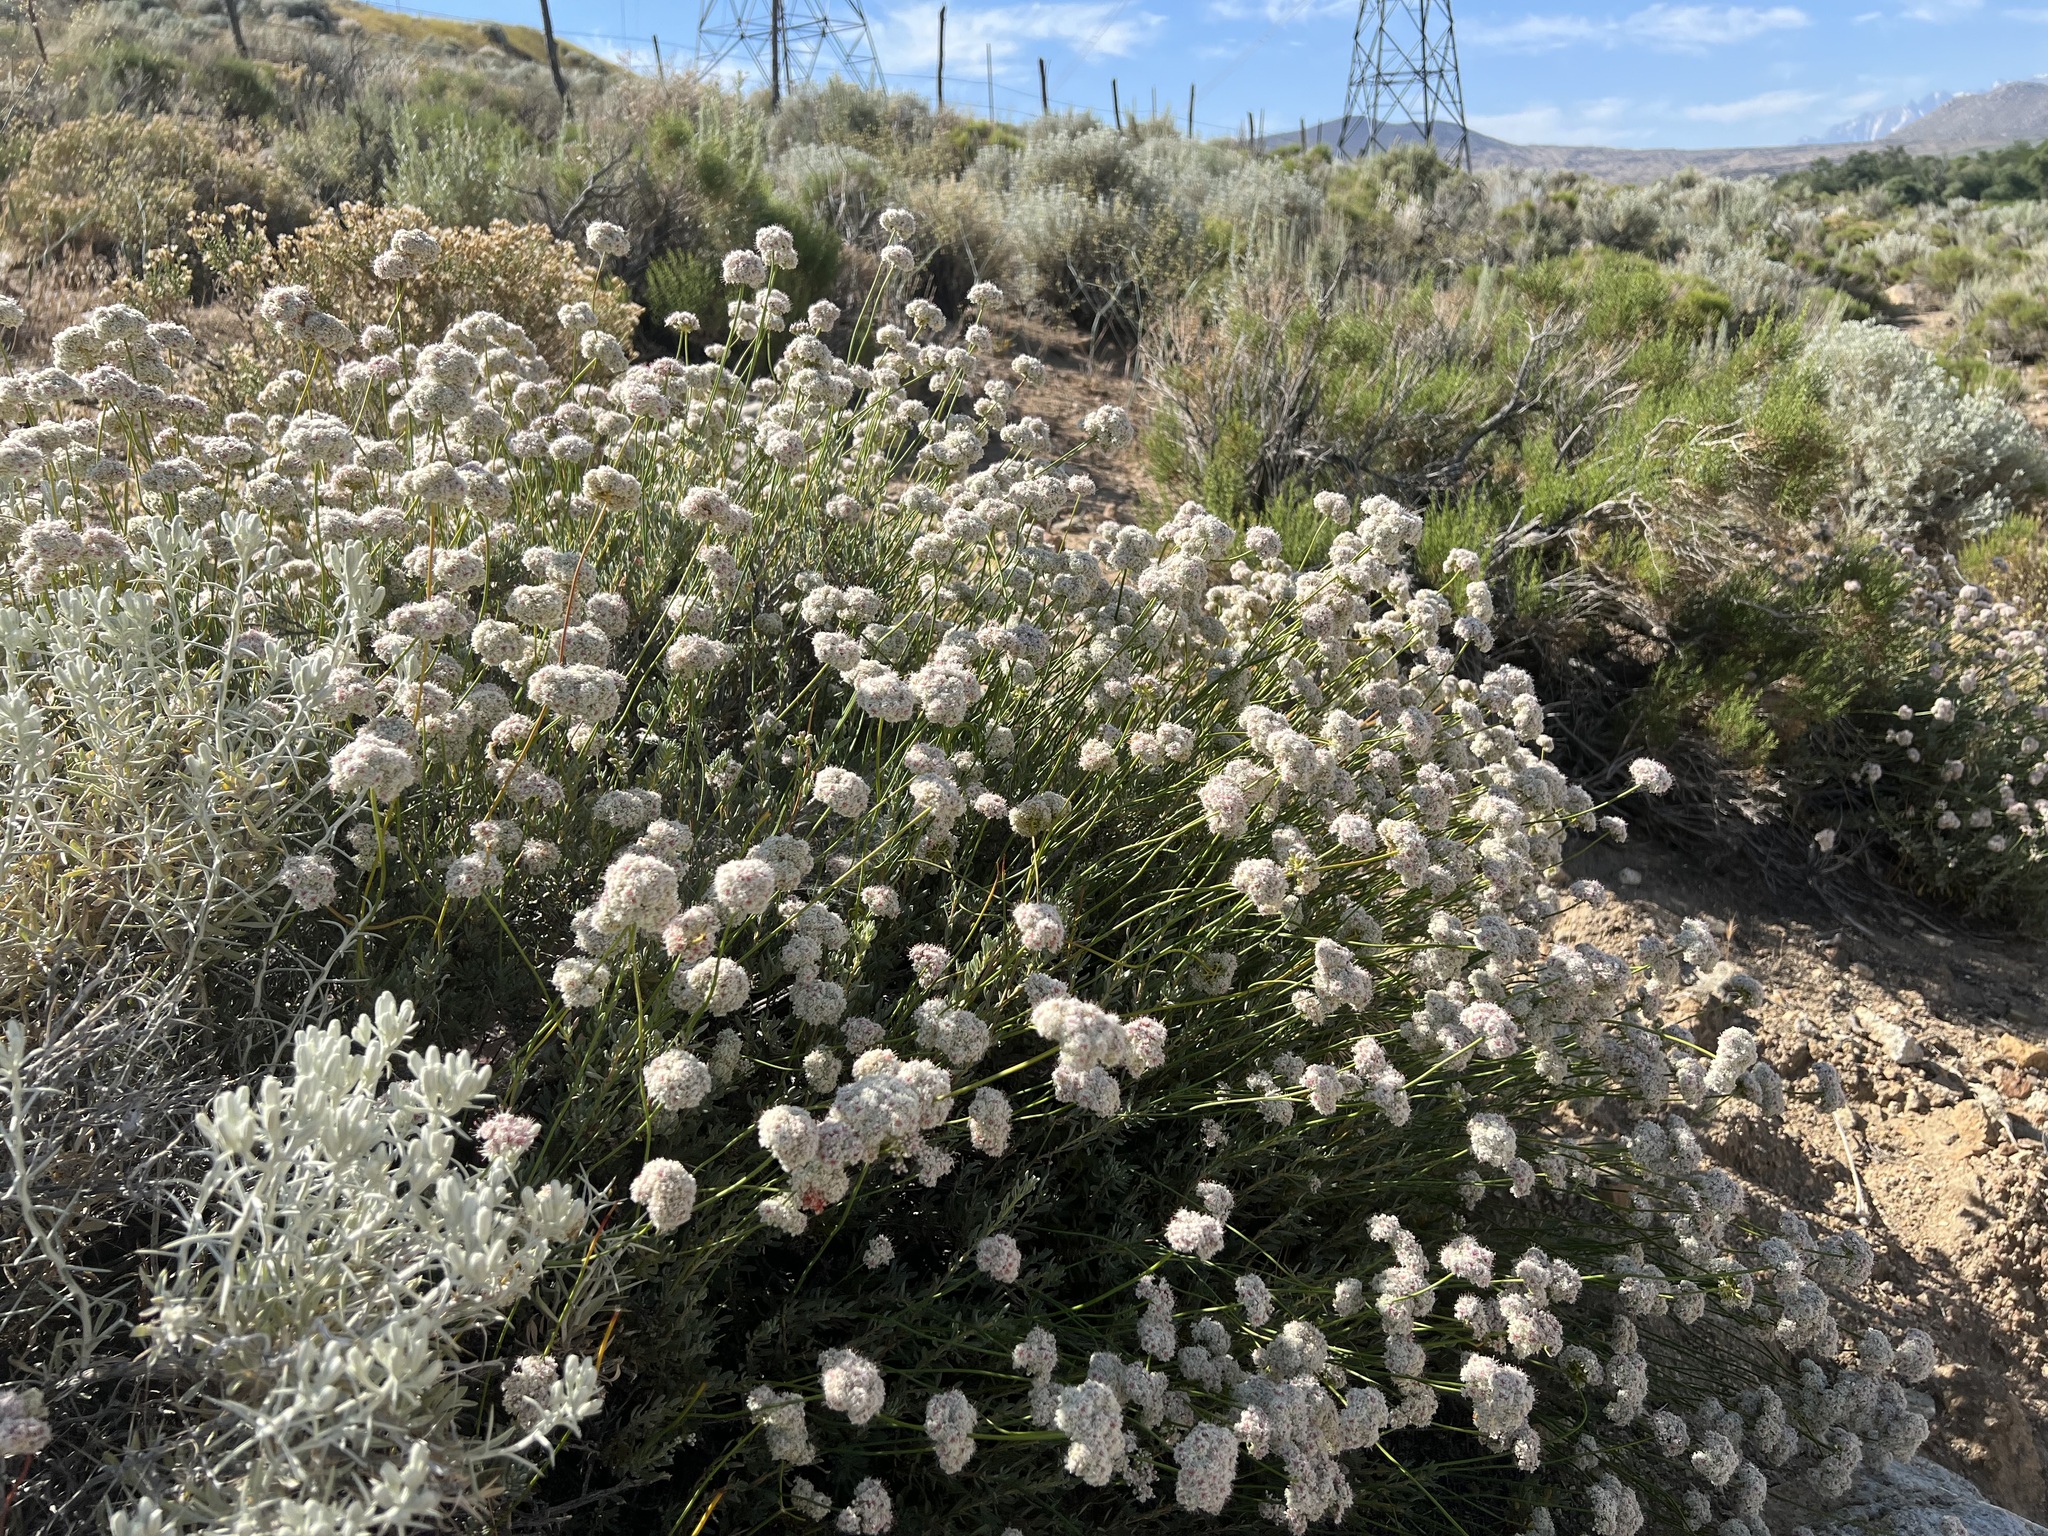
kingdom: Plantae
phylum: Tracheophyta
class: Magnoliopsida
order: Caryophyllales
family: Polygonaceae
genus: Eriogonum
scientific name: Eriogonum fasciculatum
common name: California wild buckwheat
